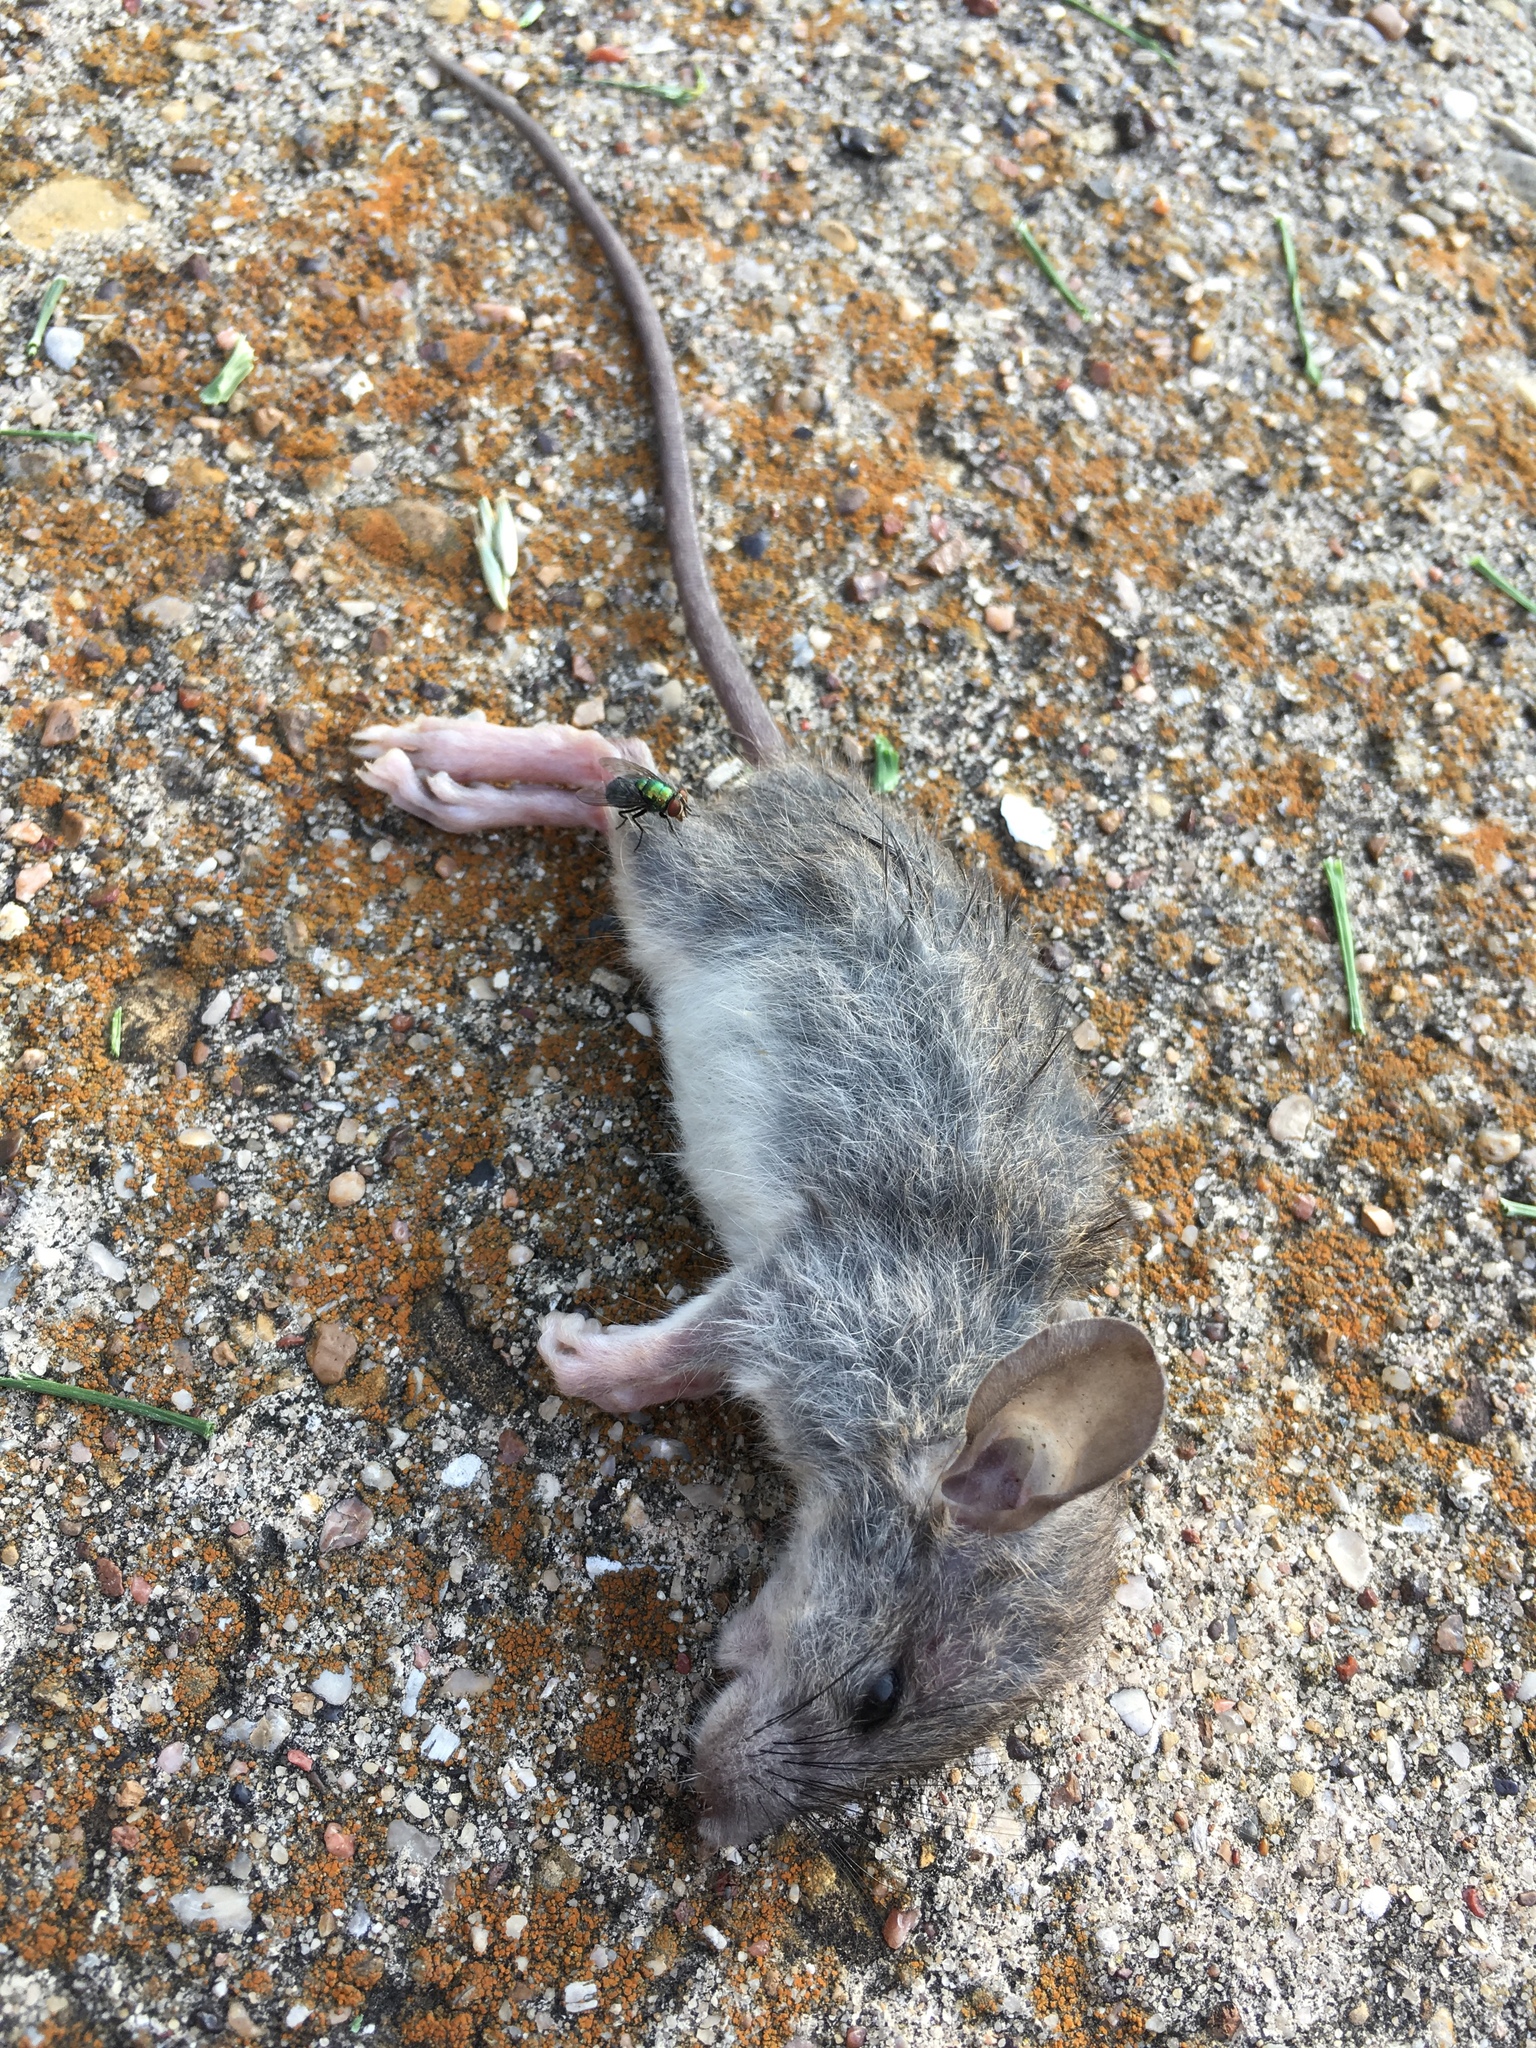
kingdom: Animalia
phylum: Chordata
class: Mammalia
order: Rodentia
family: Muridae
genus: Rattus
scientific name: Rattus rattus
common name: Black rat
